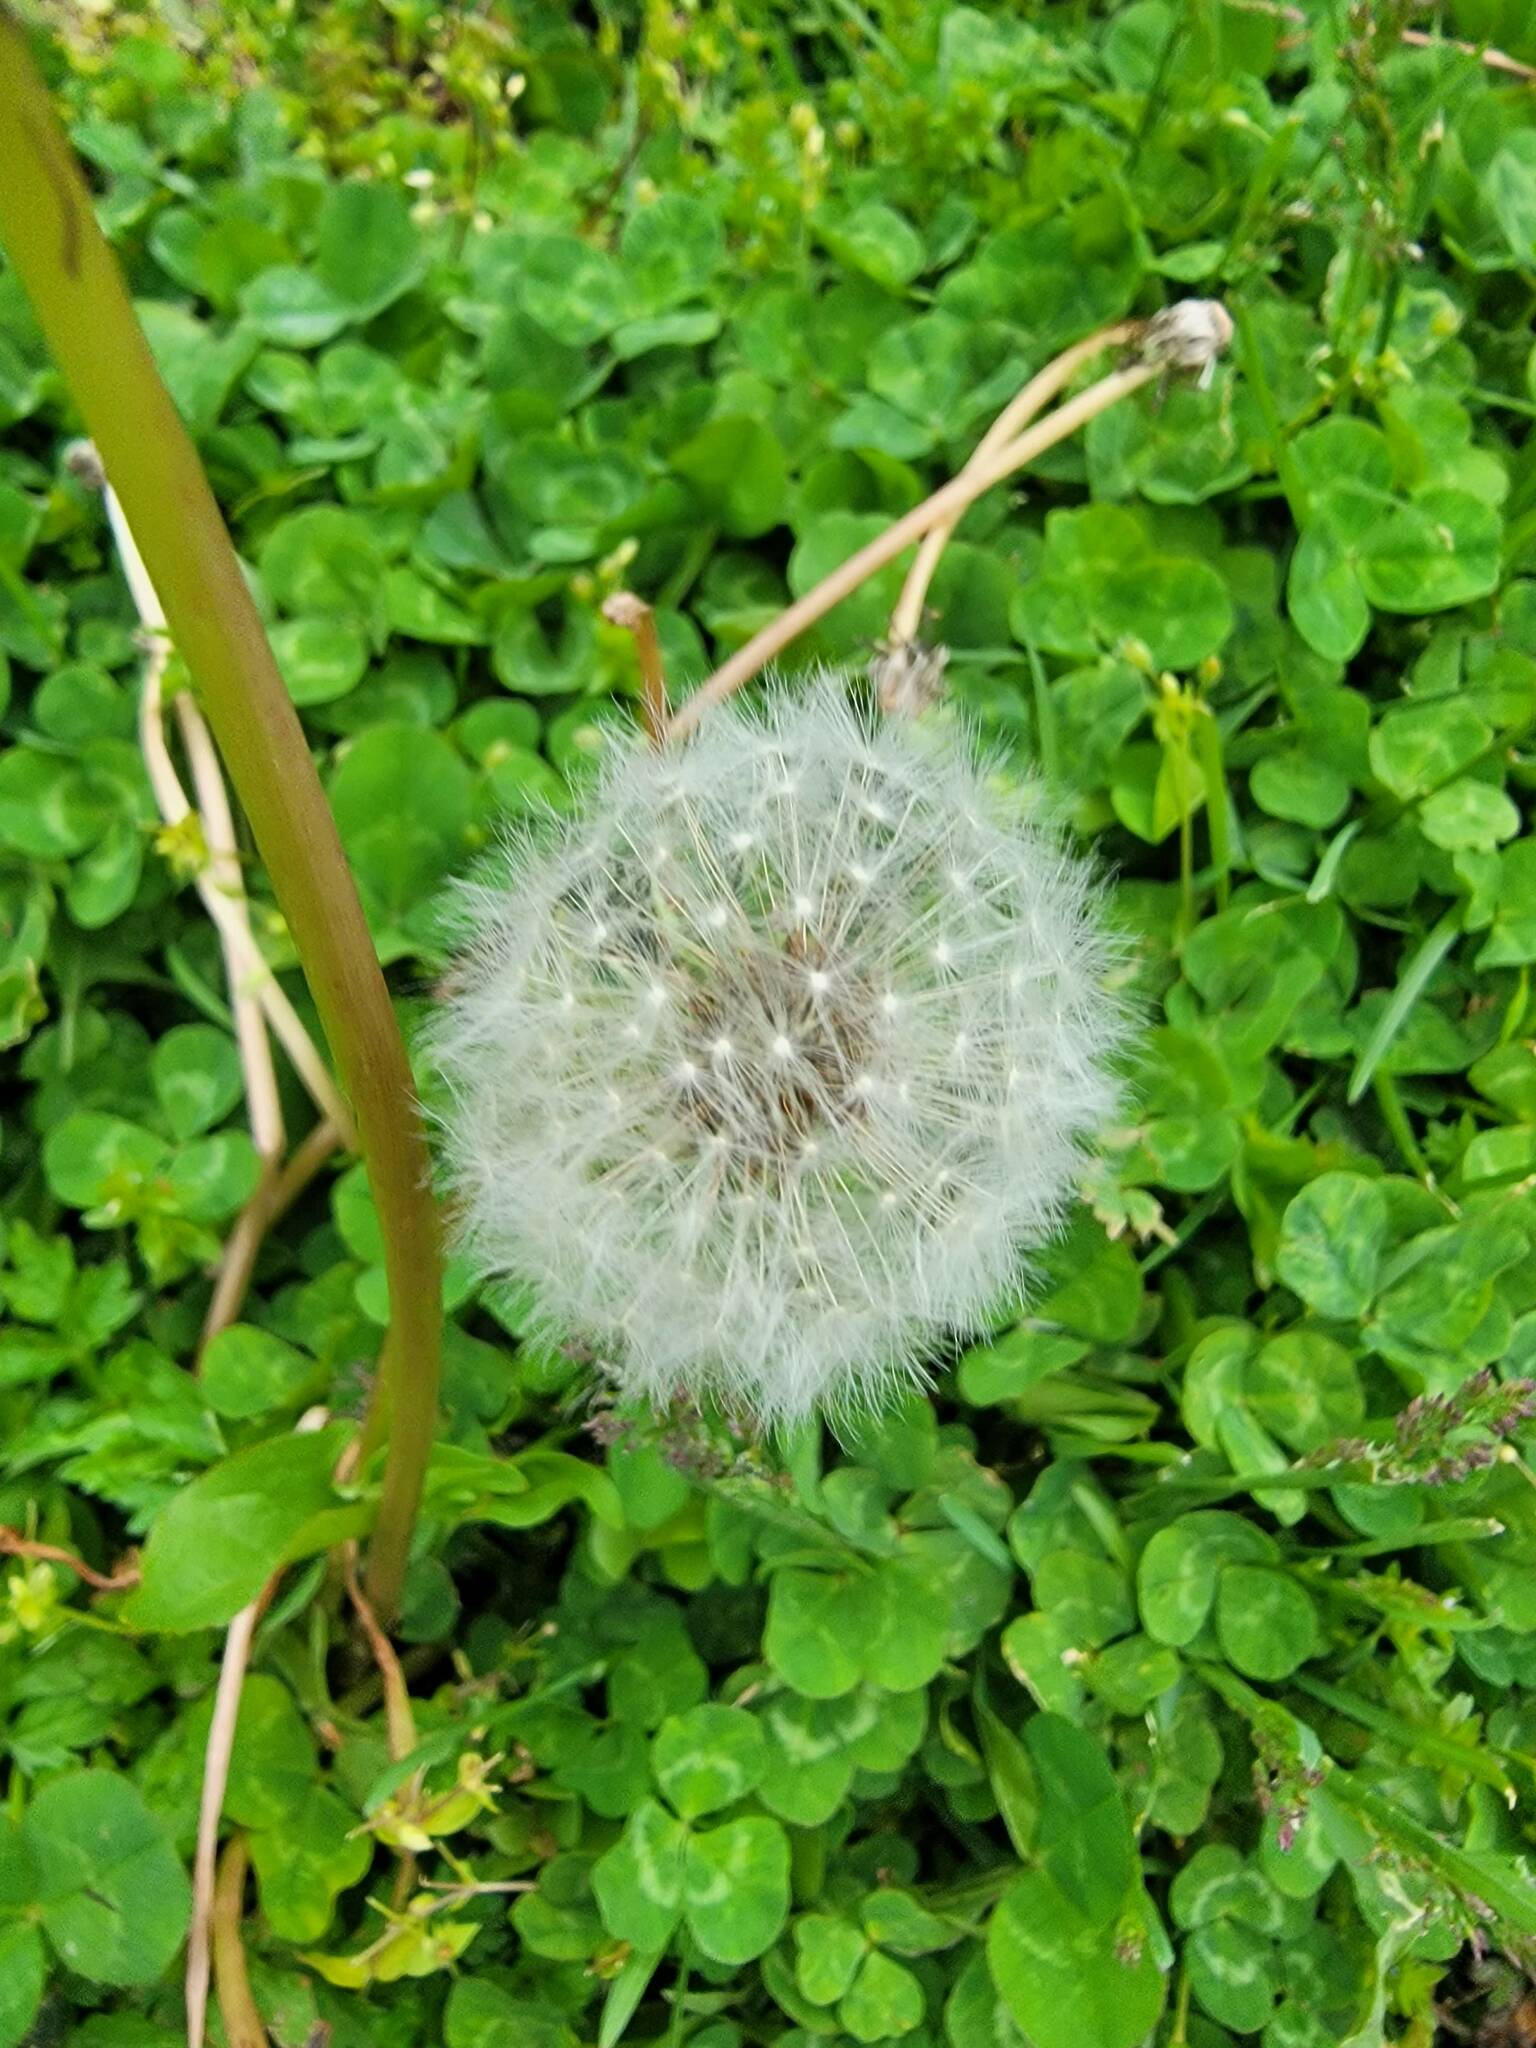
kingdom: Plantae
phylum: Tracheophyta
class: Magnoliopsida
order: Asterales
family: Asteraceae
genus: Taraxacum
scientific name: Taraxacum officinale
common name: Common dandelion
